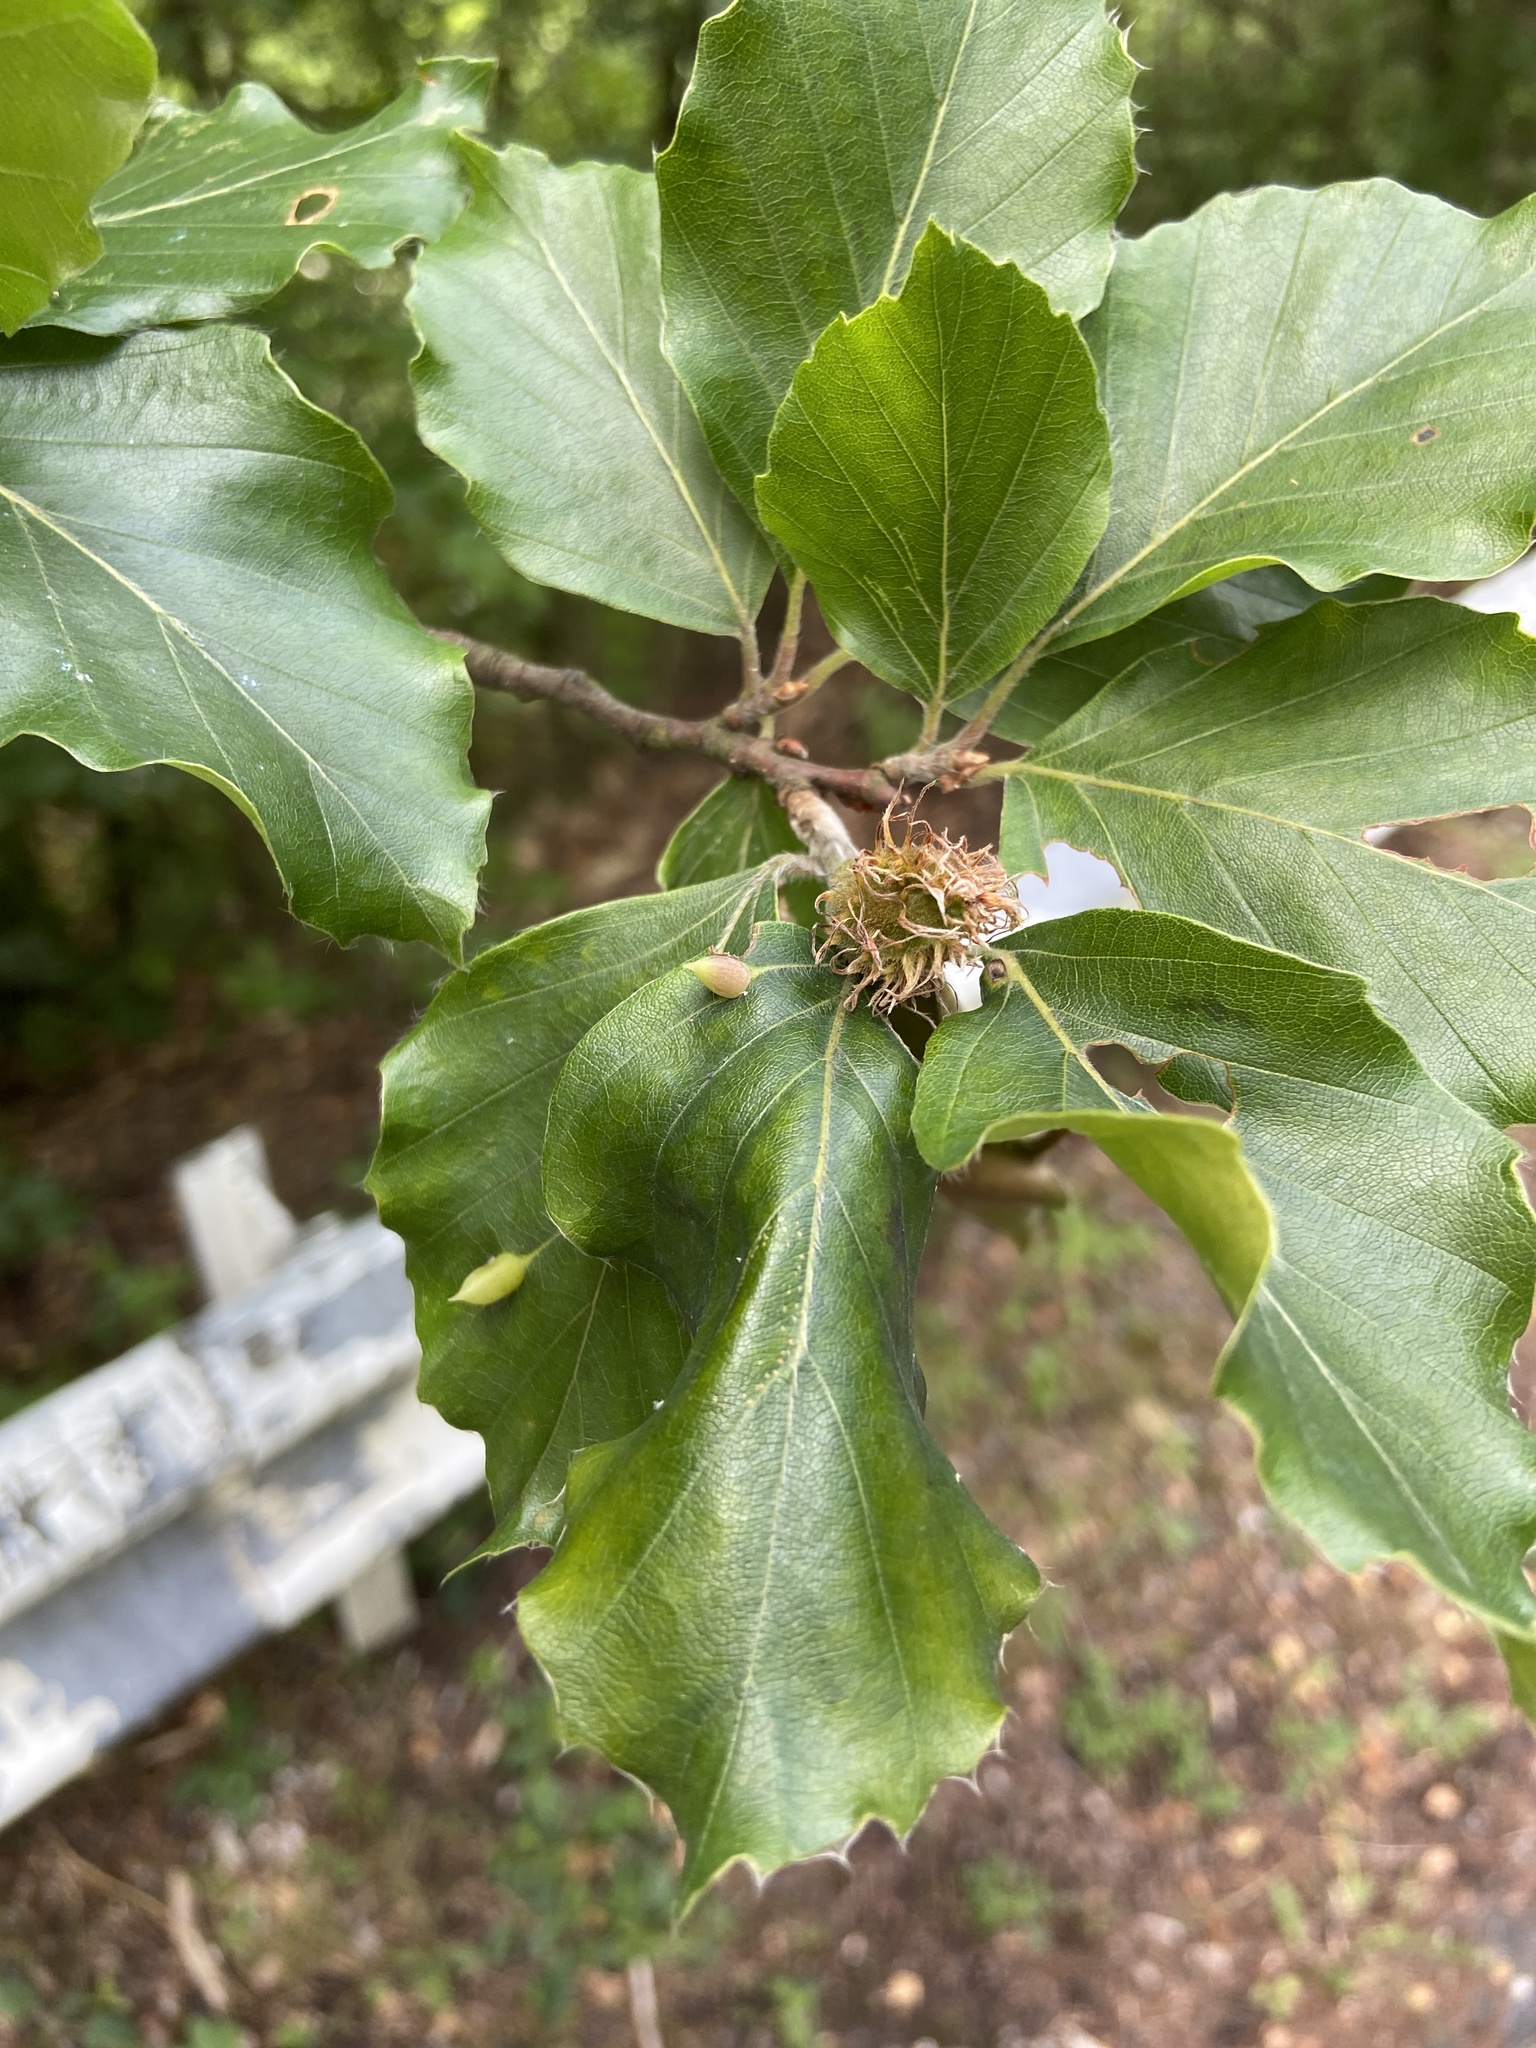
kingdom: Animalia
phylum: Arthropoda
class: Insecta
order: Diptera
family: Cecidomyiidae
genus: Mikiola
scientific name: Mikiola fagi
